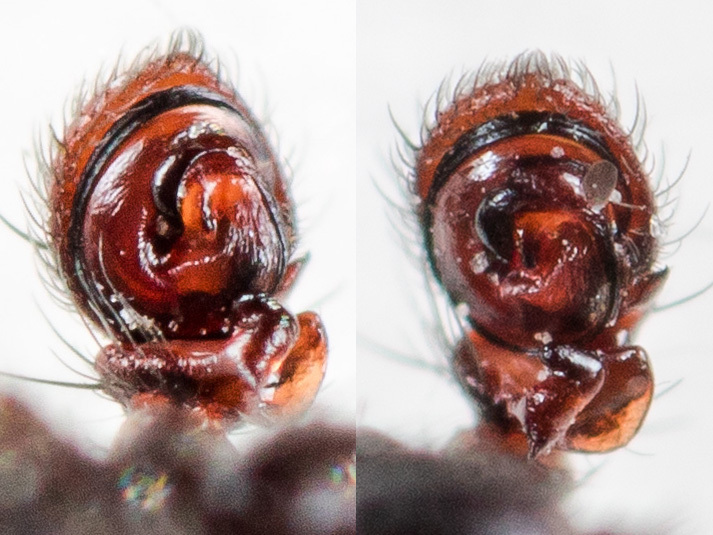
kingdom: Animalia
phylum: Arthropoda
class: Arachnida
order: Araneae
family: Thomisidae
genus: Bassaniodes
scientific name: Bassaniodes tristrami
